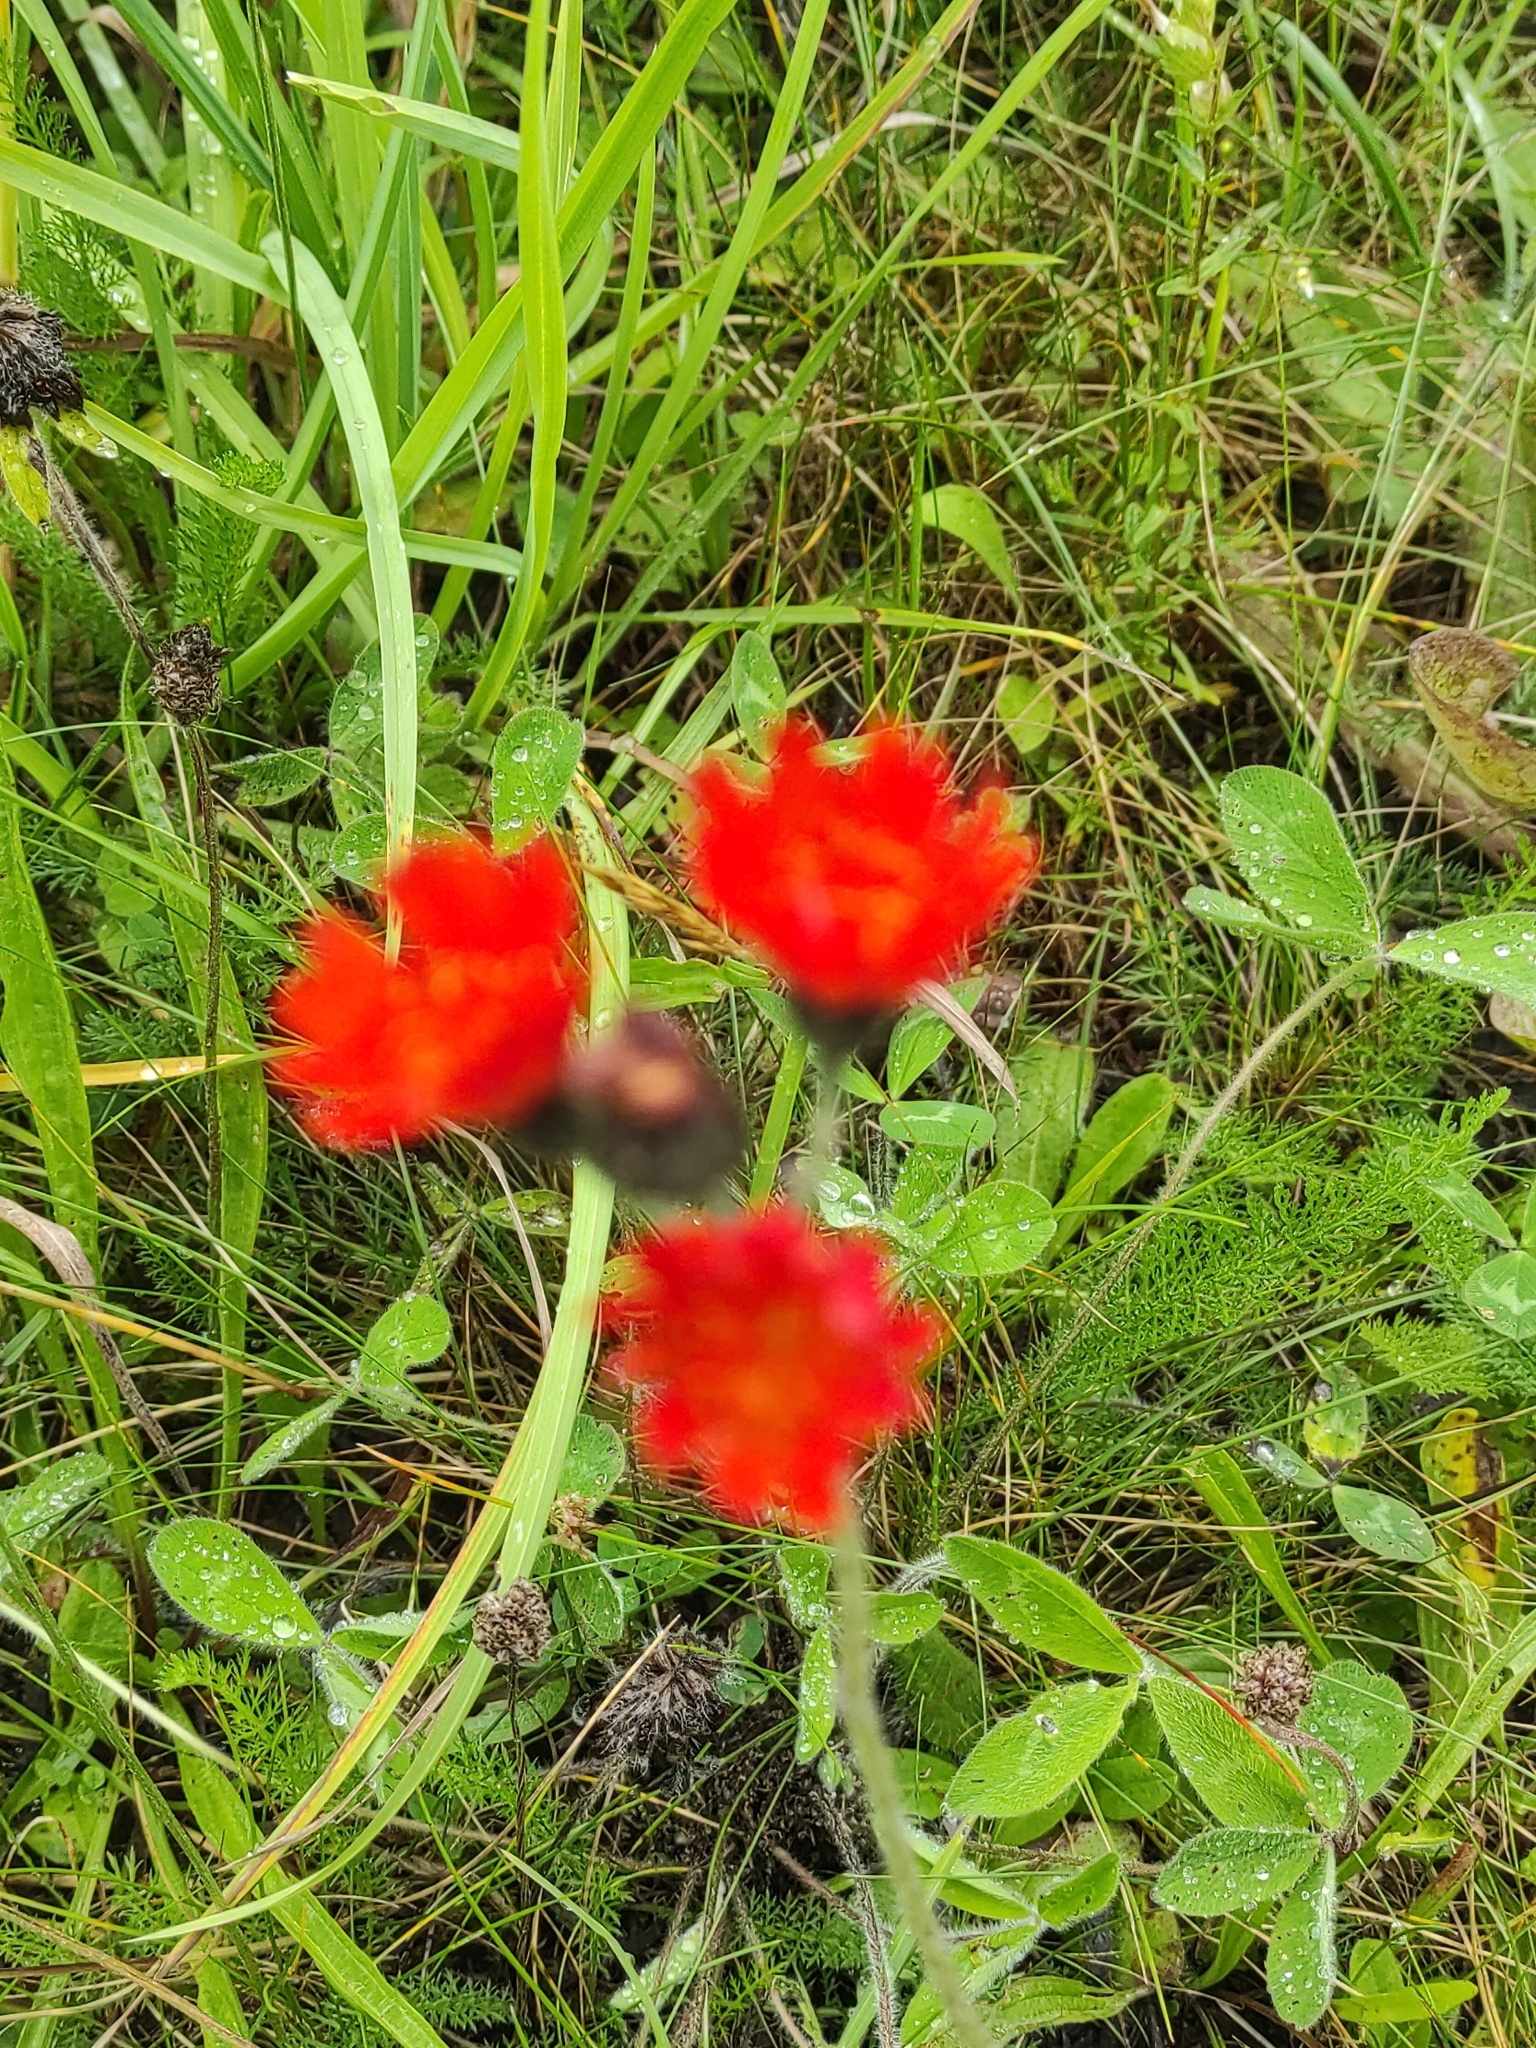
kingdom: Plantae
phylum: Tracheophyta
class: Magnoliopsida
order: Asterales
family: Asteraceae
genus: Pilosella
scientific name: Pilosella aurantiaca
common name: Fox-and-cubs
